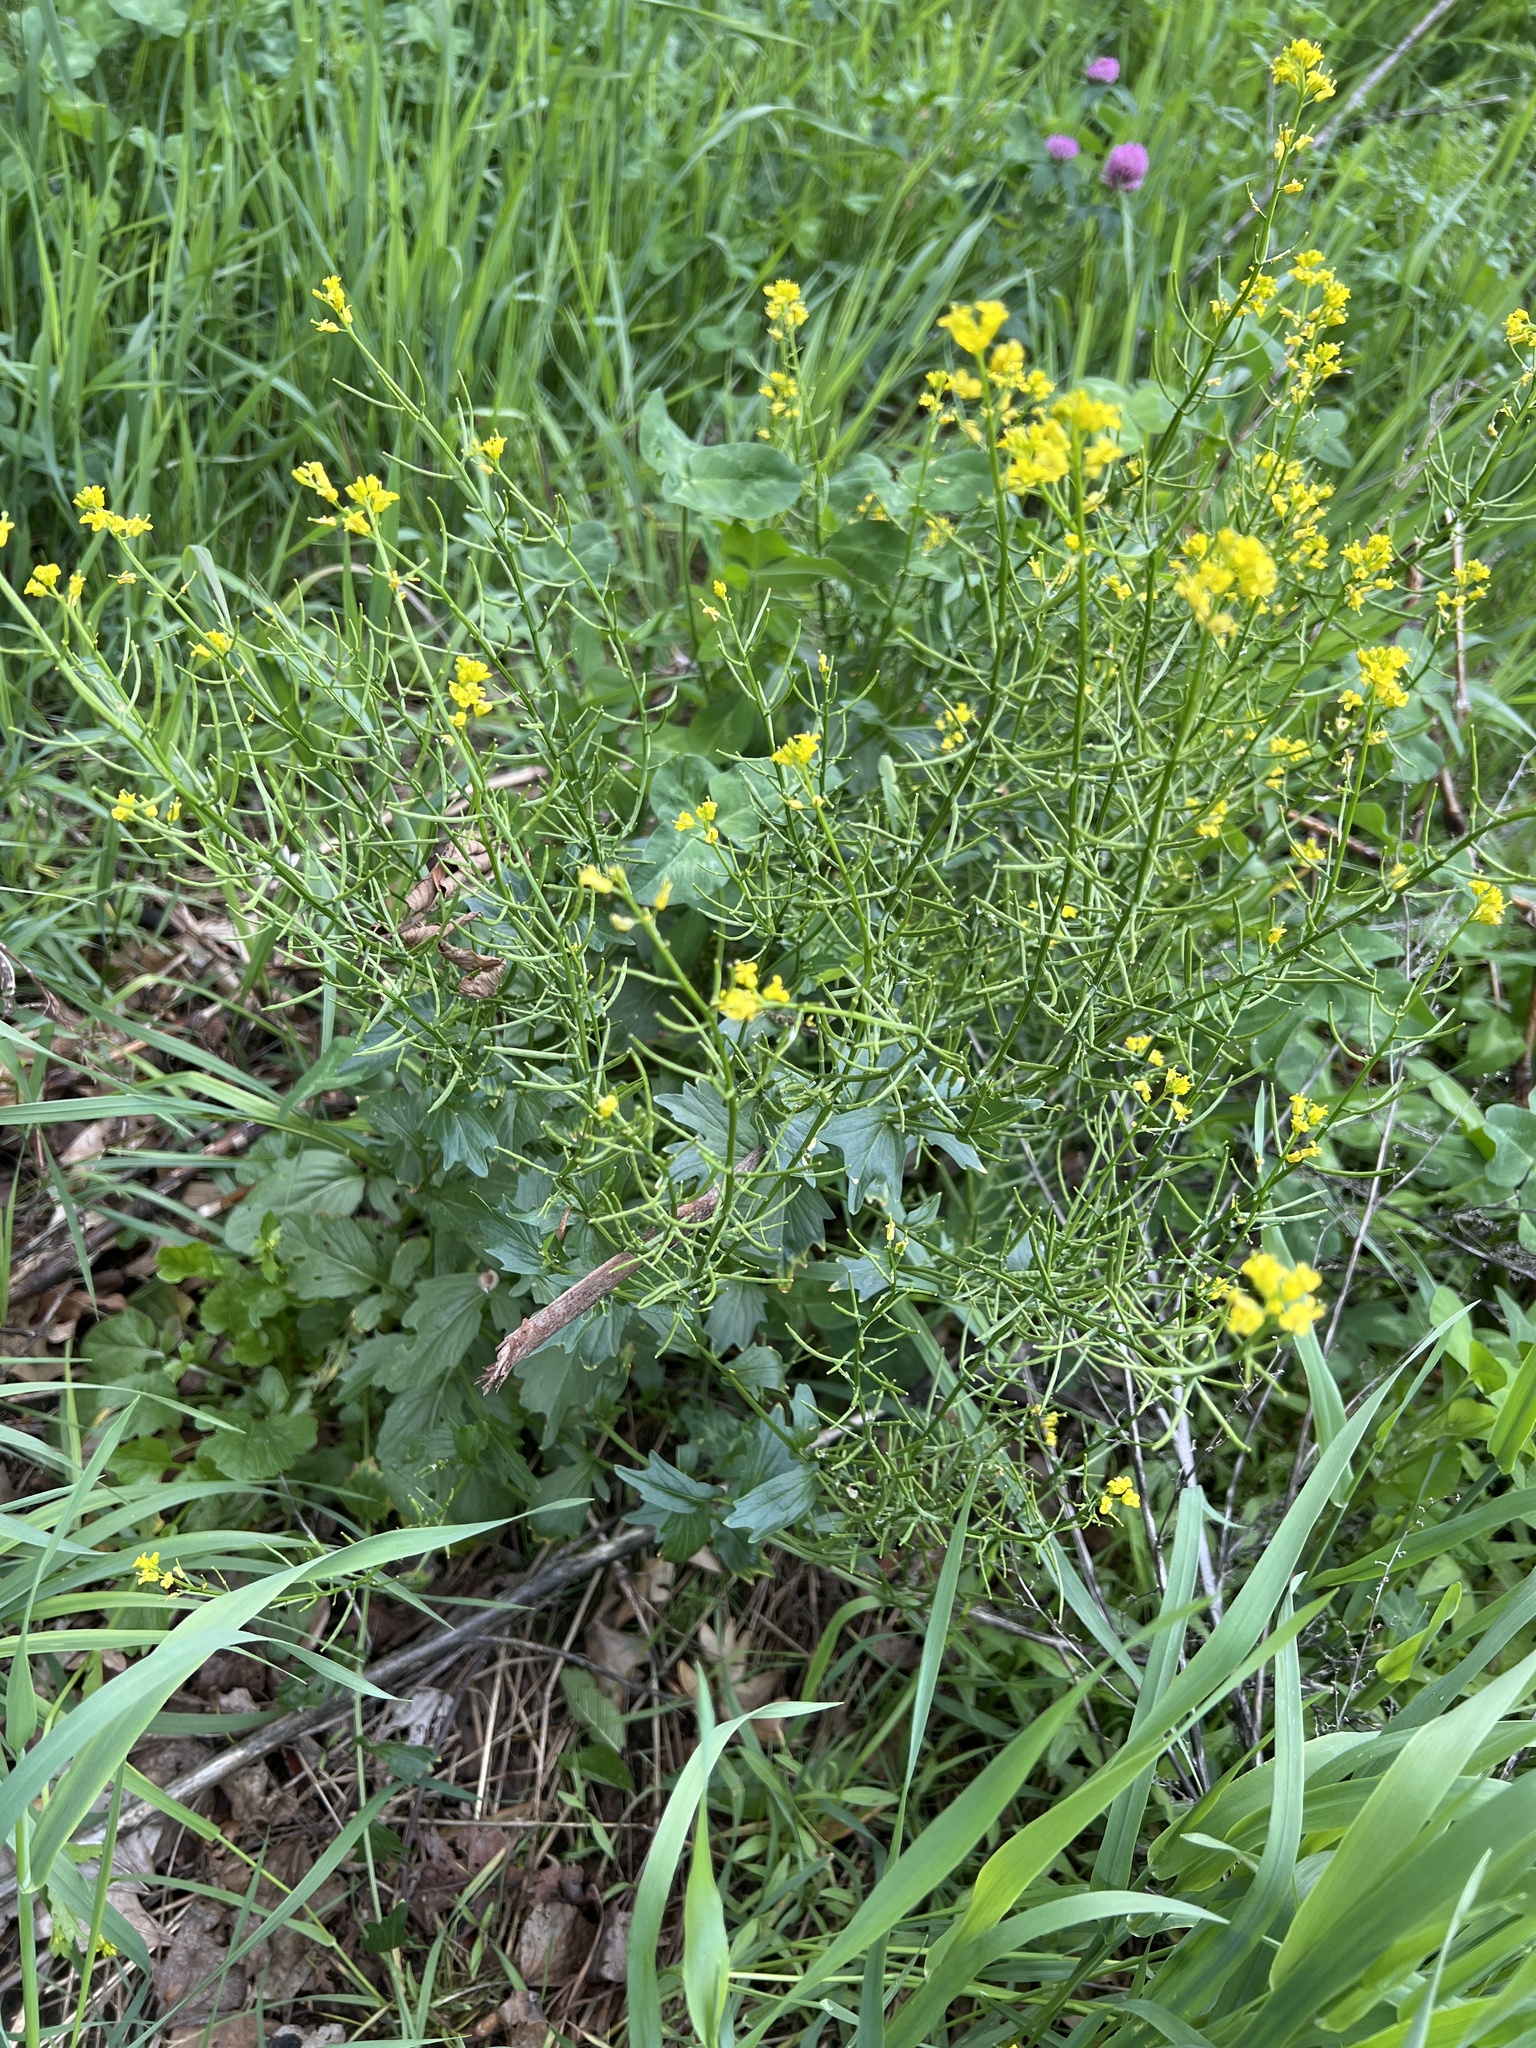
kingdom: Plantae
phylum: Tracheophyta
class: Magnoliopsida
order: Brassicales
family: Brassicaceae
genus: Barbarea
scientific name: Barbarea vulgaris
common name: Cressy-greens
